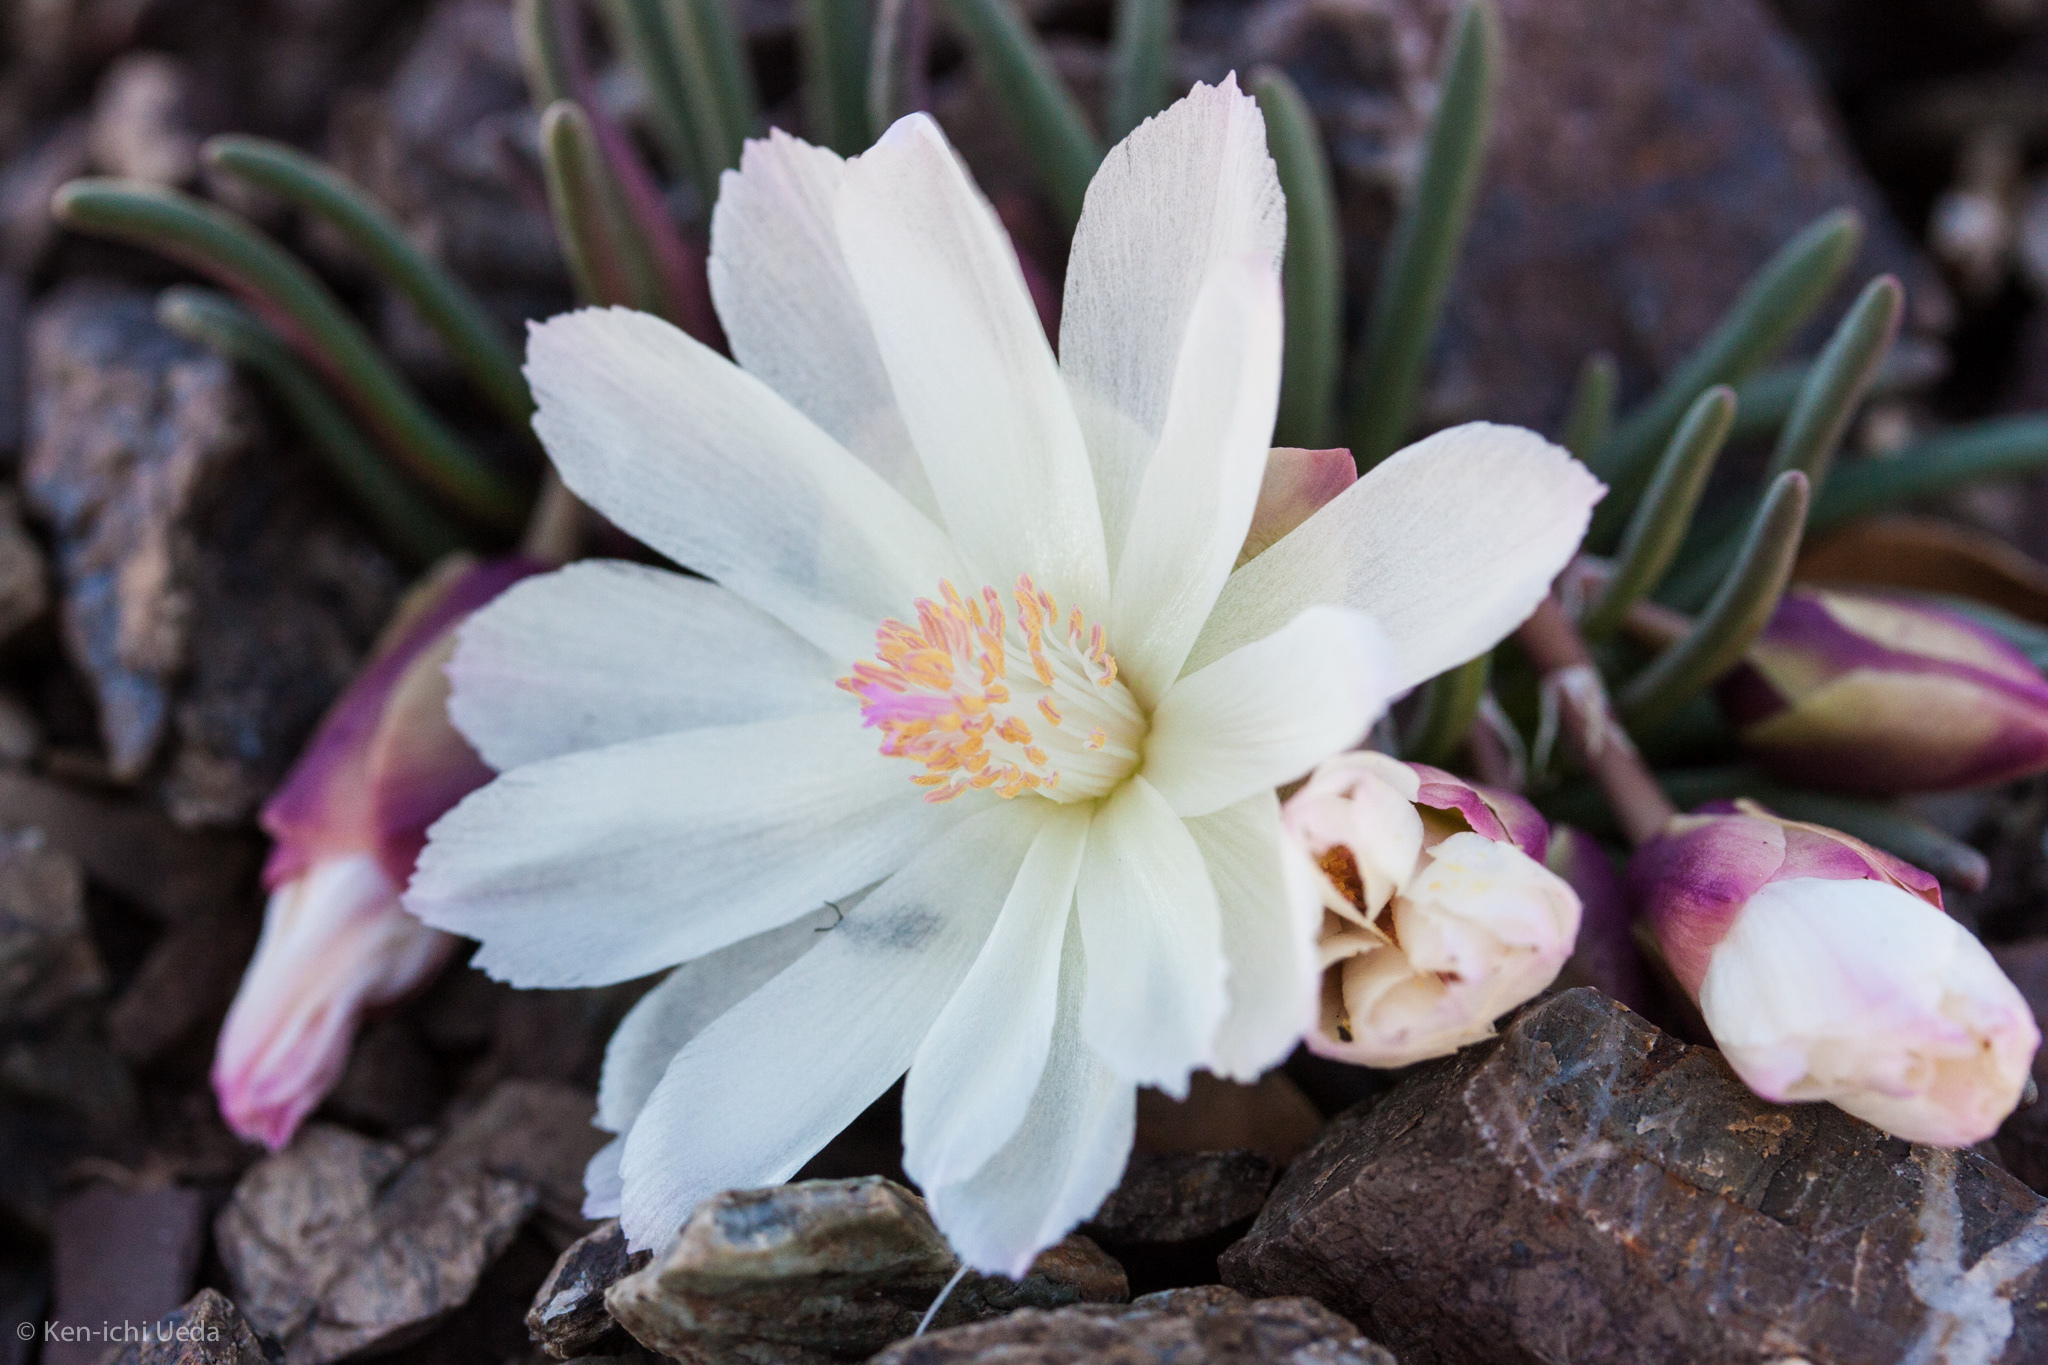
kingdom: Plantae
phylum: Tracheophyta
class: Magnoliopsida
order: Caryophyllales
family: Montiaceae
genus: Lewisia
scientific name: Lewisia rediviva
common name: Bitter-root
